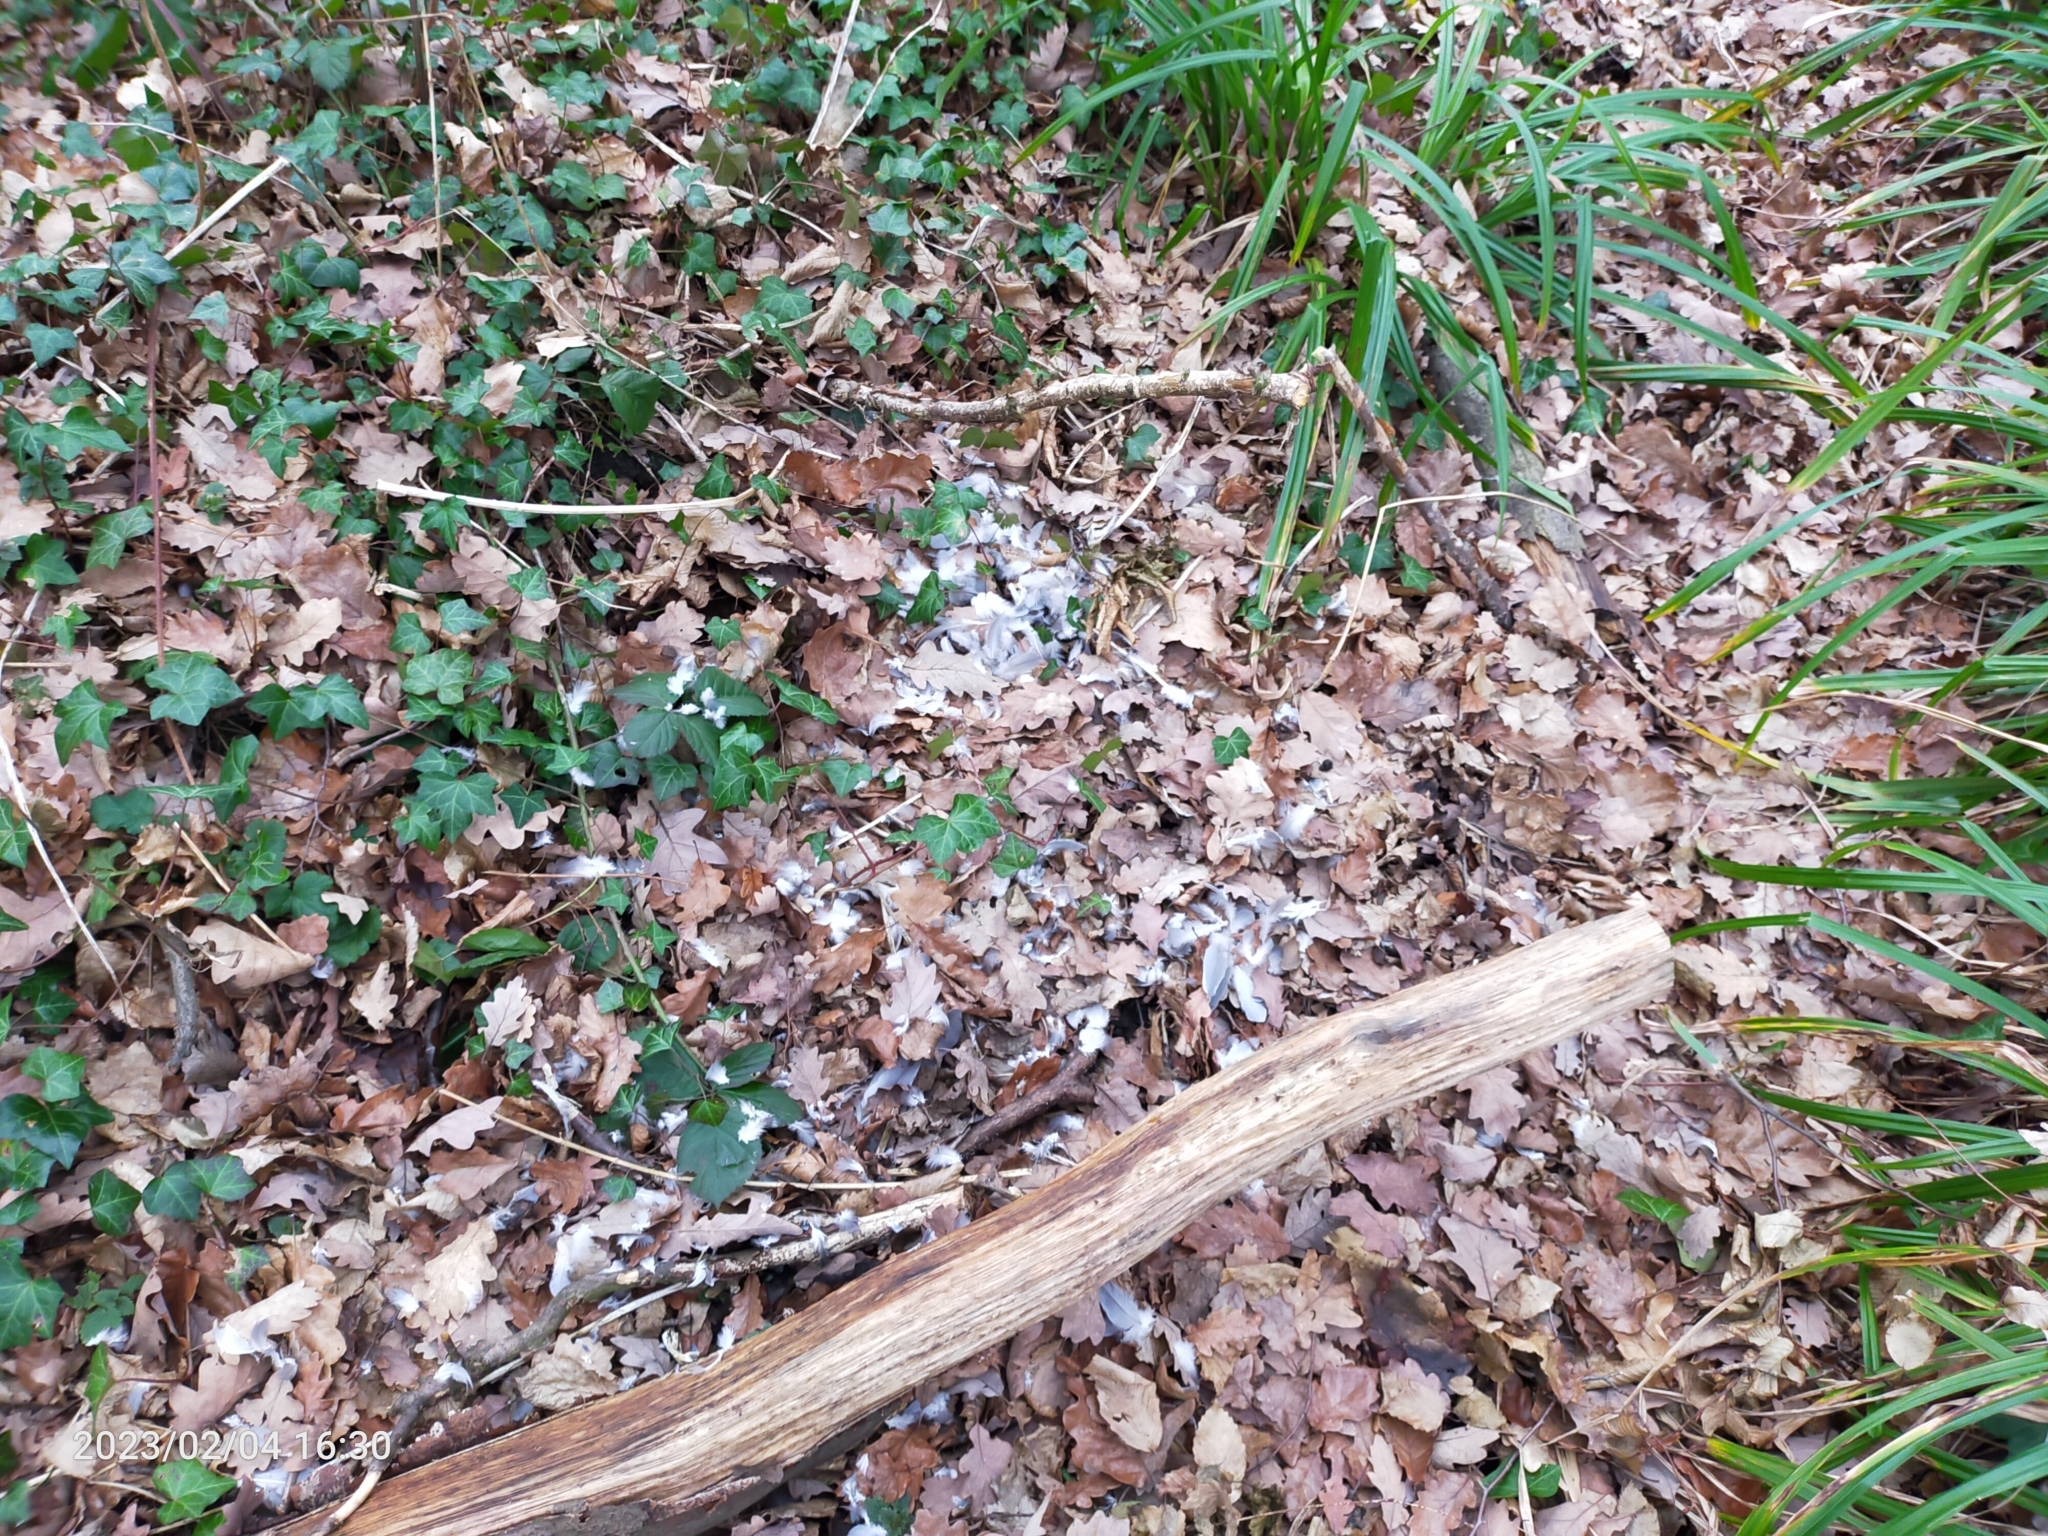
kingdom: Animalia
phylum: Chordata
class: Aves
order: Columbiformes
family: Columbidae
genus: Columba
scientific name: Columba palumbus
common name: Common wood pigeon
